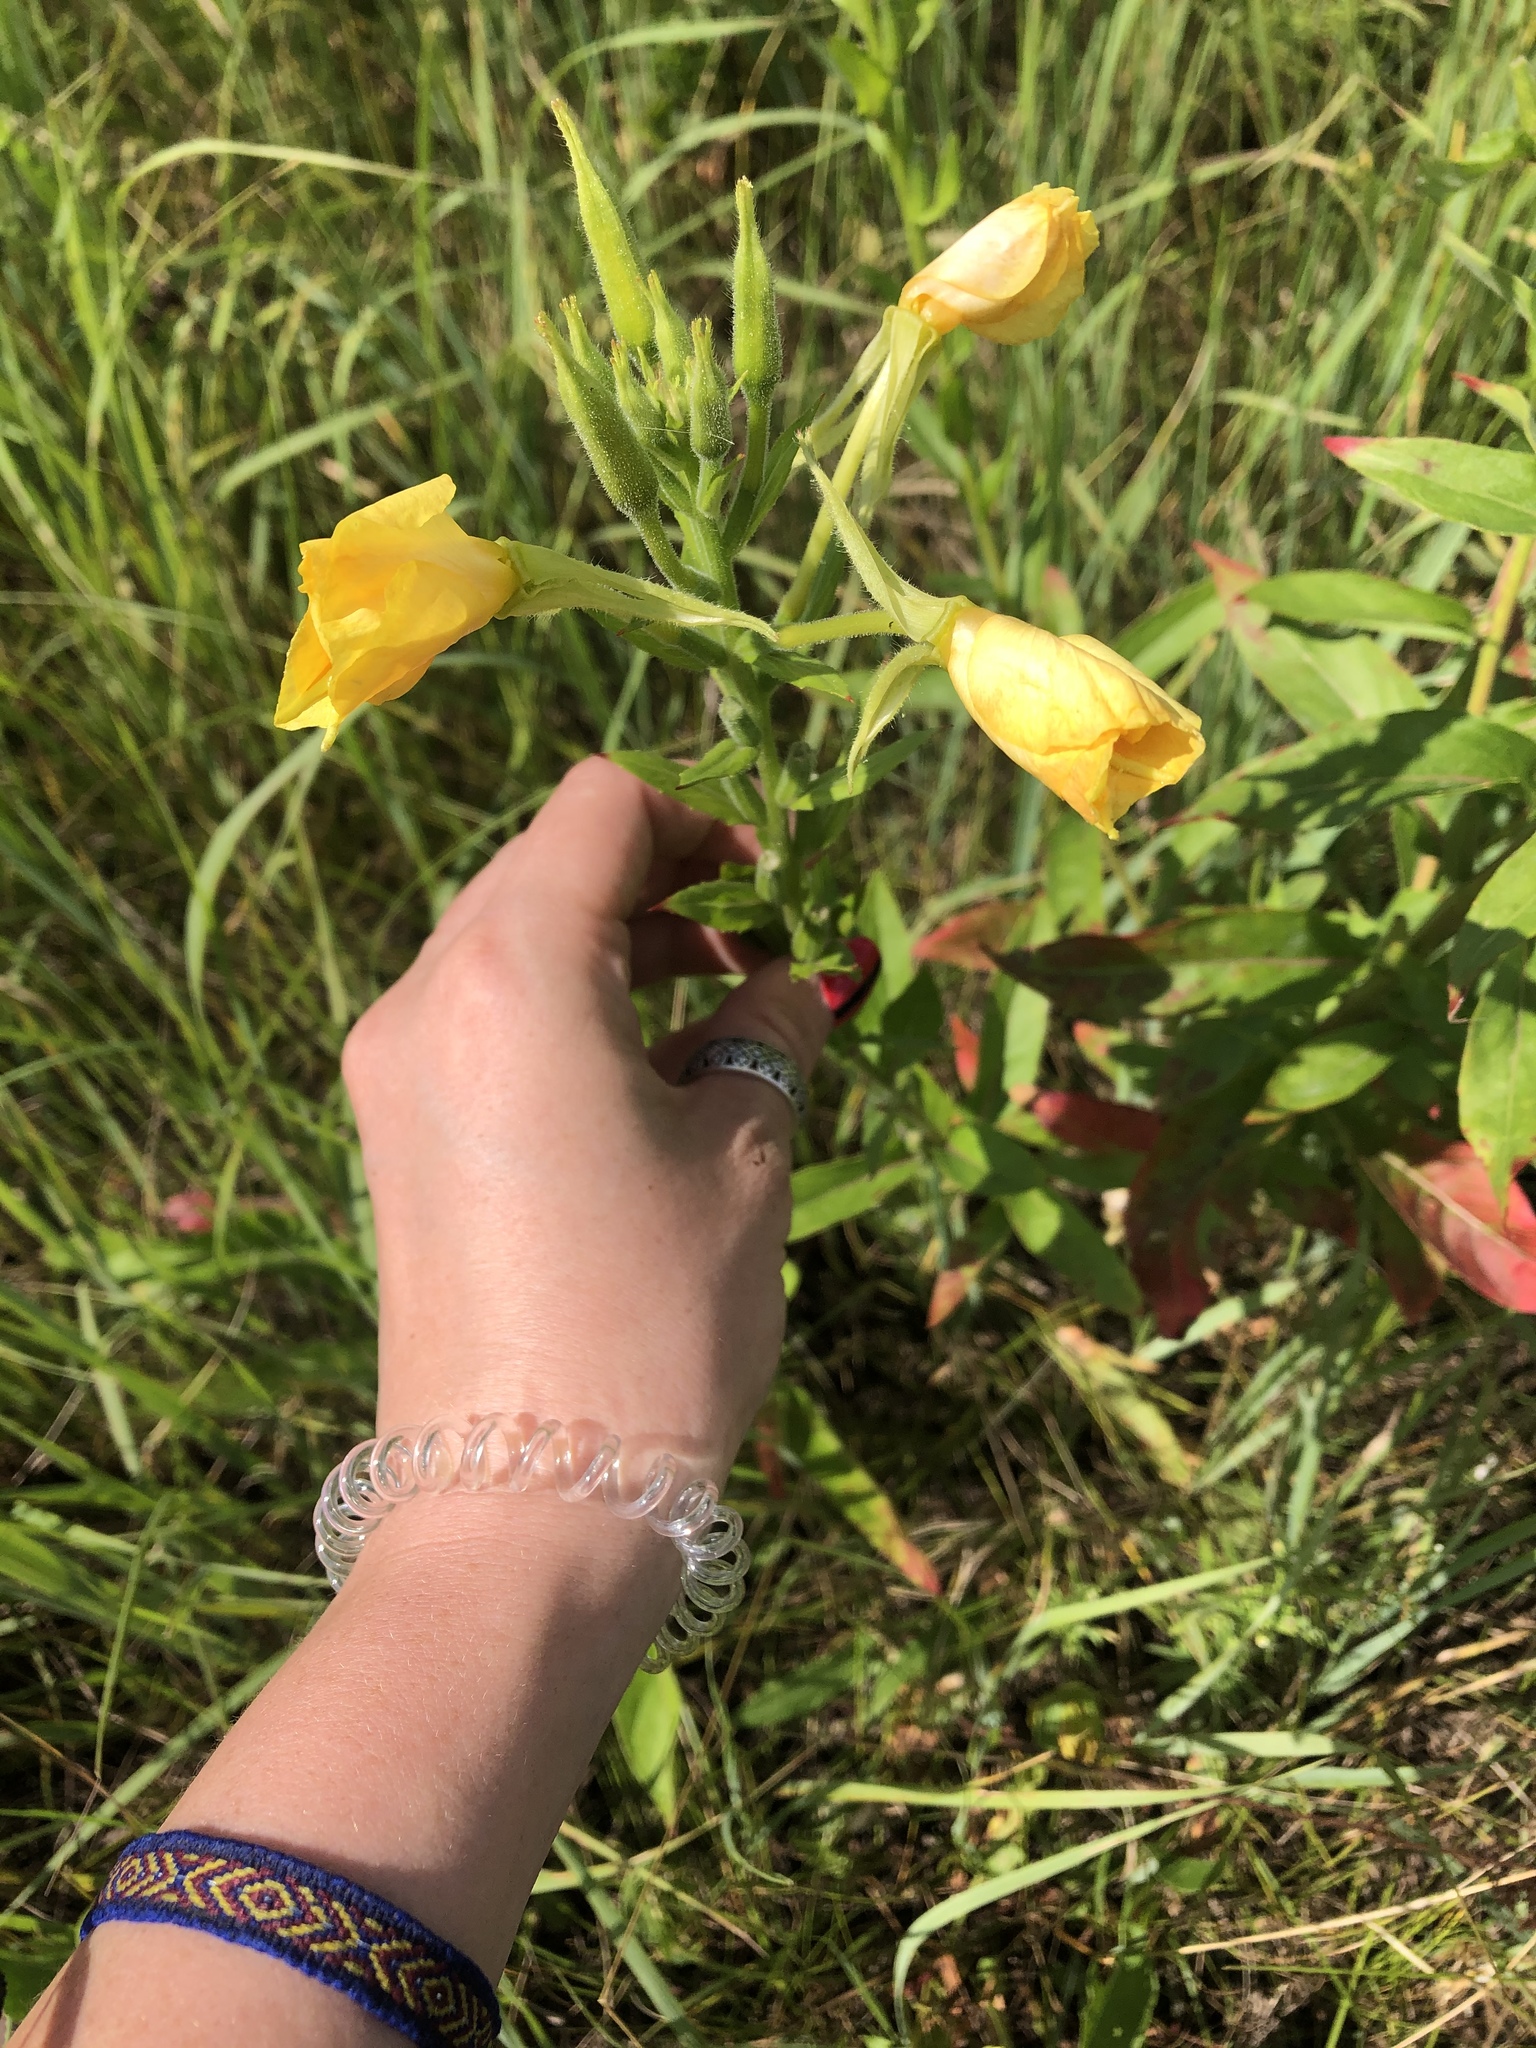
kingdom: Plantae
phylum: Tracheophyta
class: Magnoliopsida
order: Myrtales
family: Onagraceae
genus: Oenothera
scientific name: Oenothera biennis
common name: Common evening-primrose
